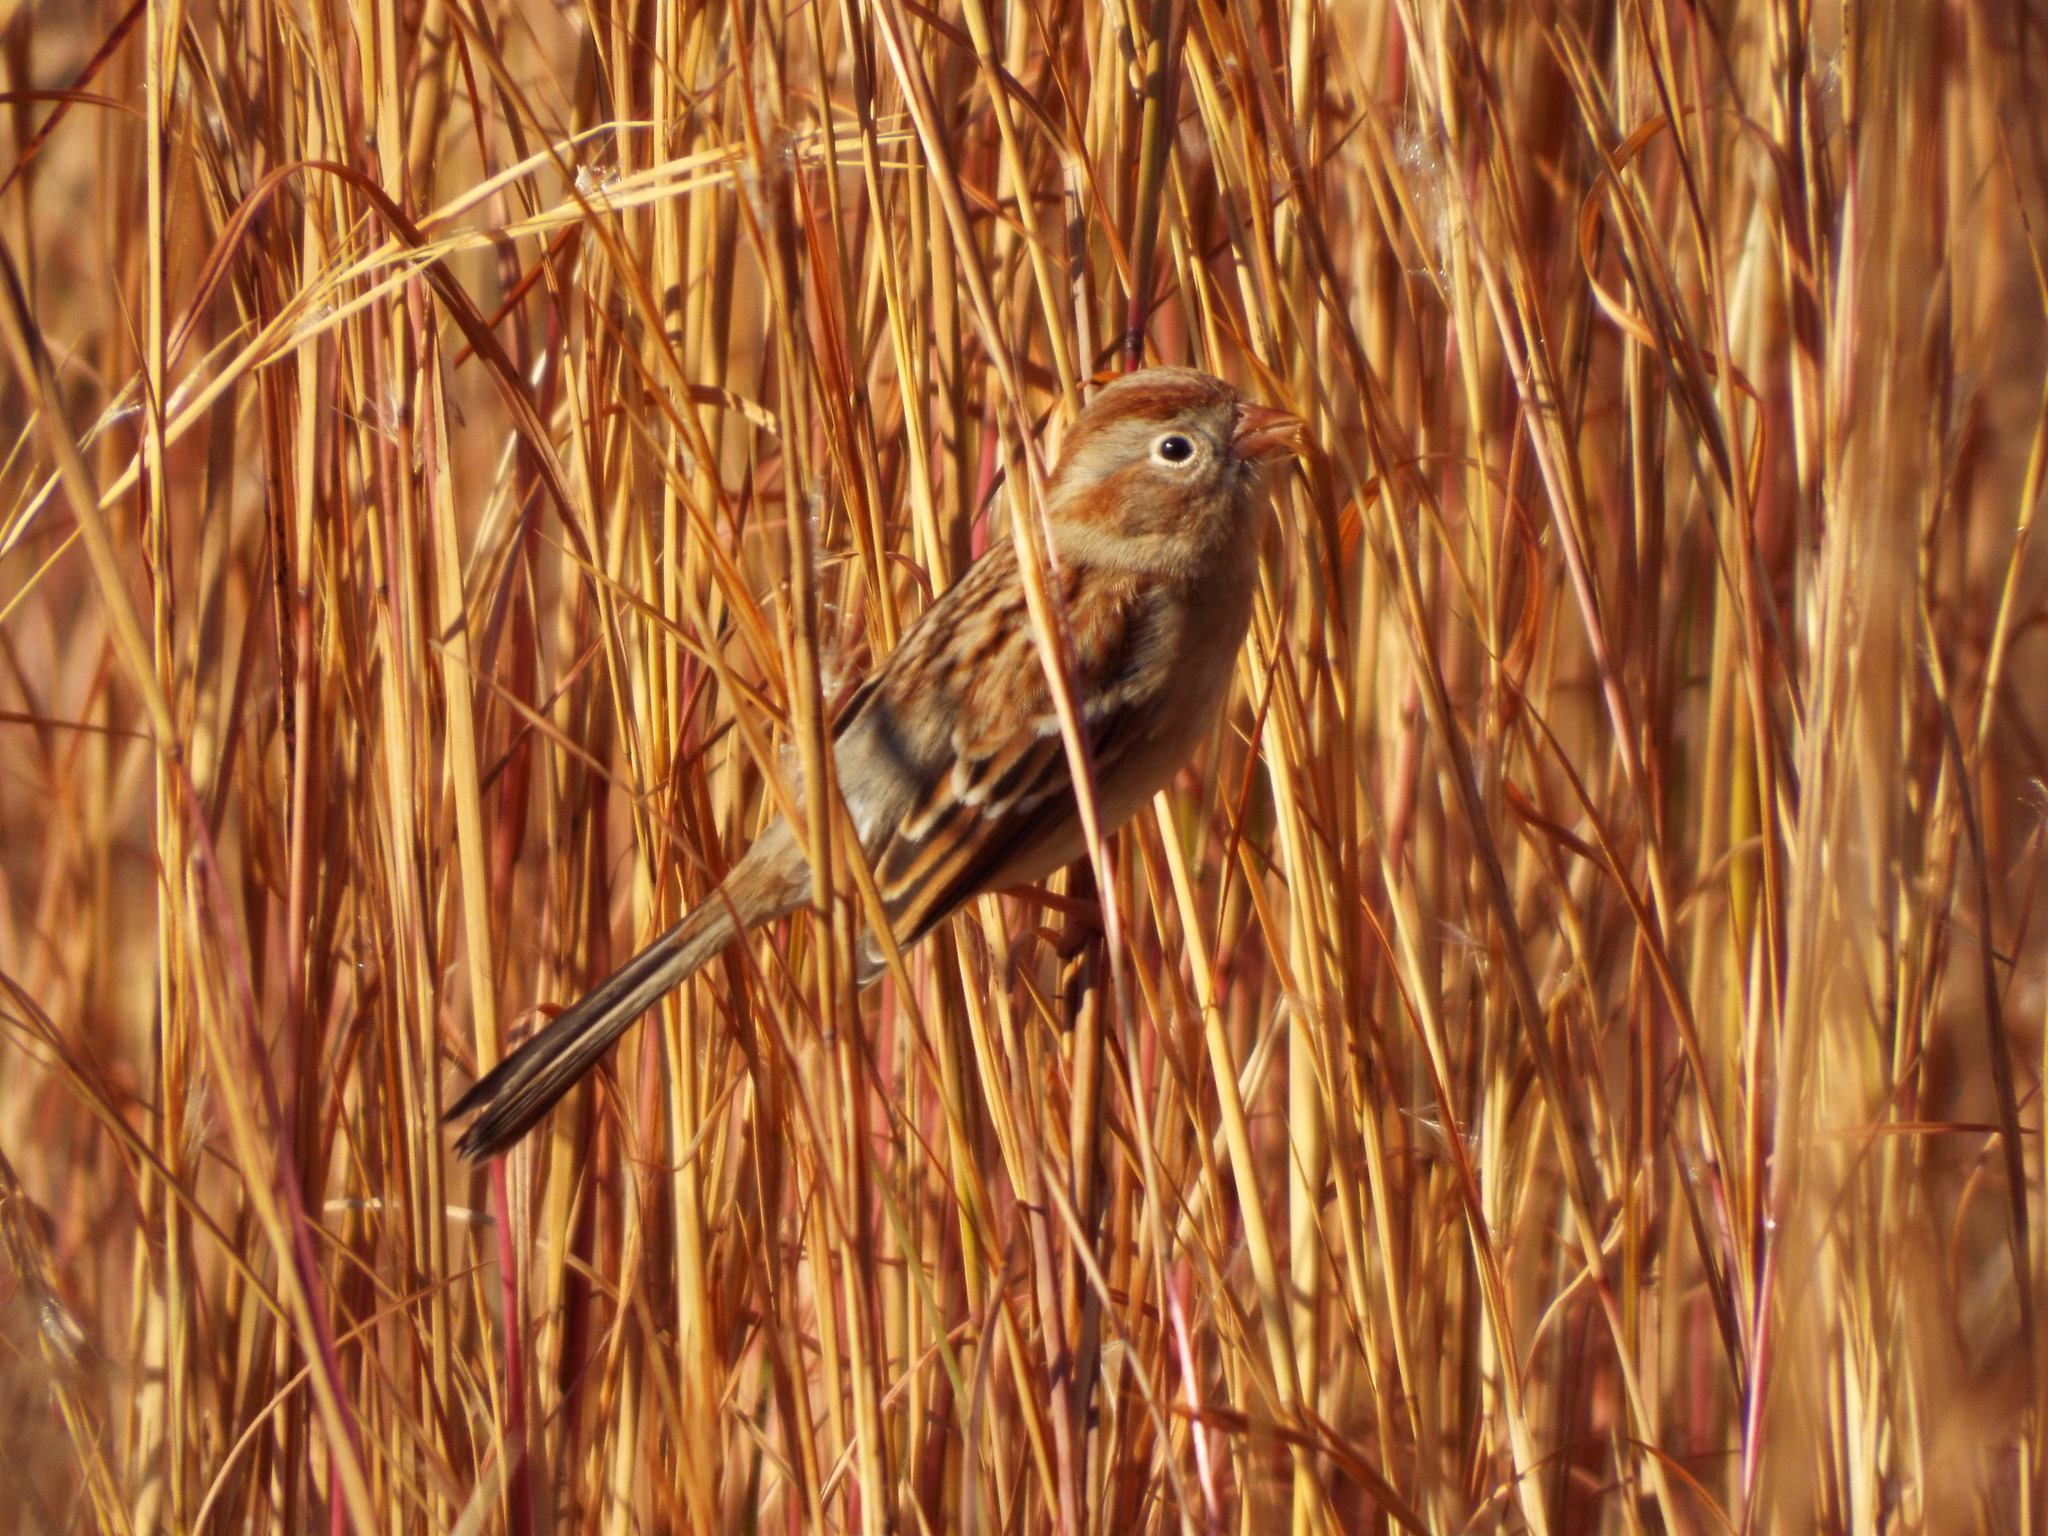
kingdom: Animalia
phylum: Chordata
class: Aves
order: Passeriformes
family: Passerellidae
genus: Spizella
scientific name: Spizella pusilla
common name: Field sparrow
